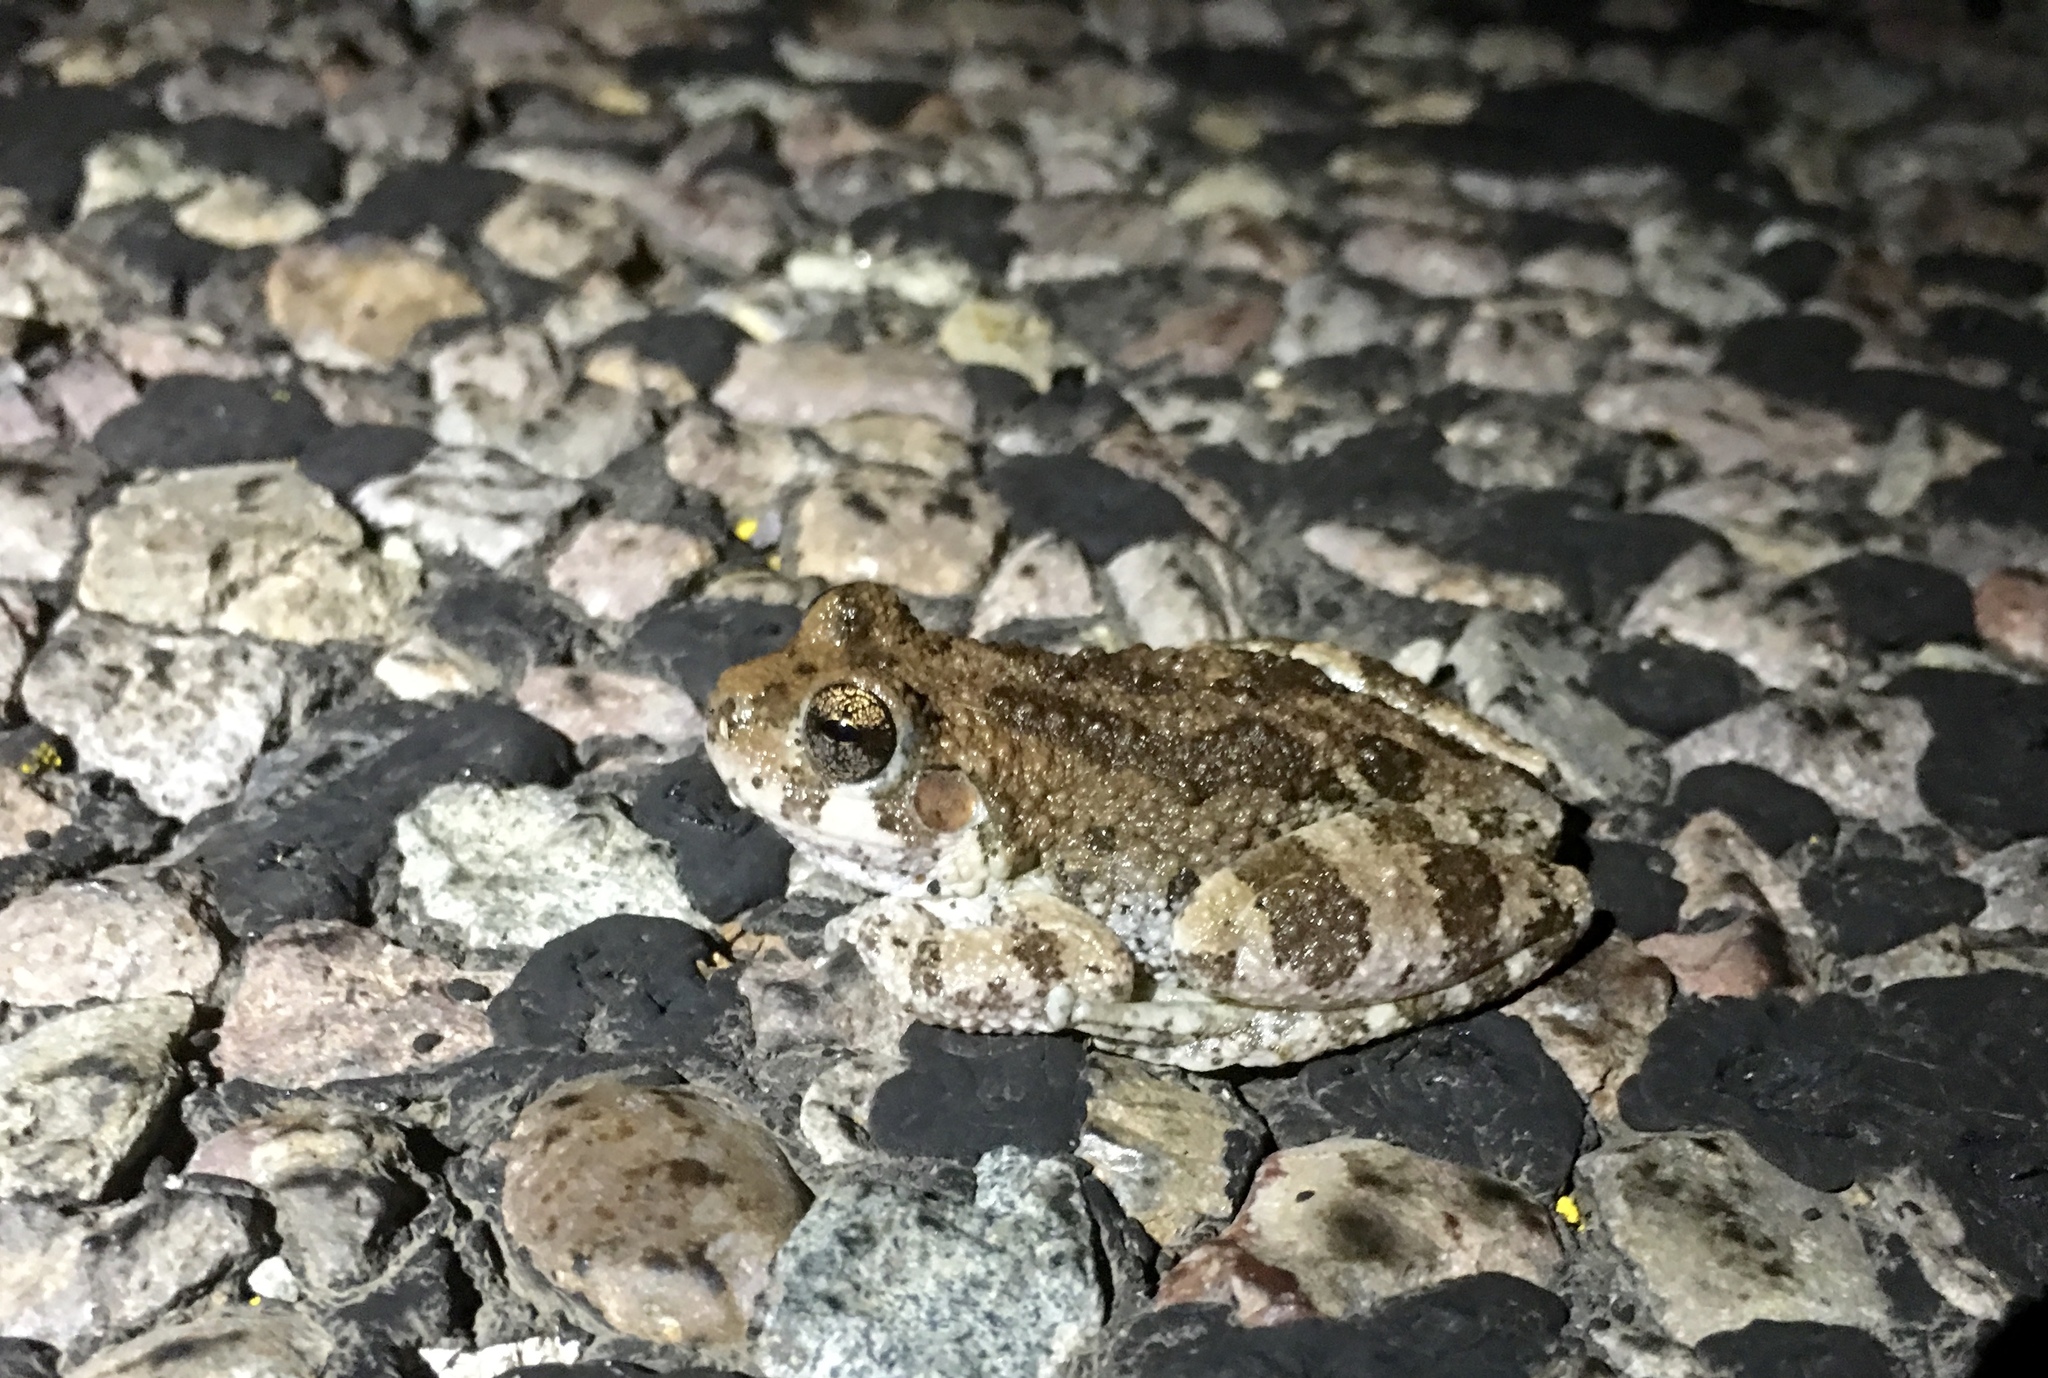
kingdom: Animalia
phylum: Chordata
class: Amphibia
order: Anura
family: Hylidae
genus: Dryophytes
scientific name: Dryophytes arenicolor
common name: Canyon treefrog
